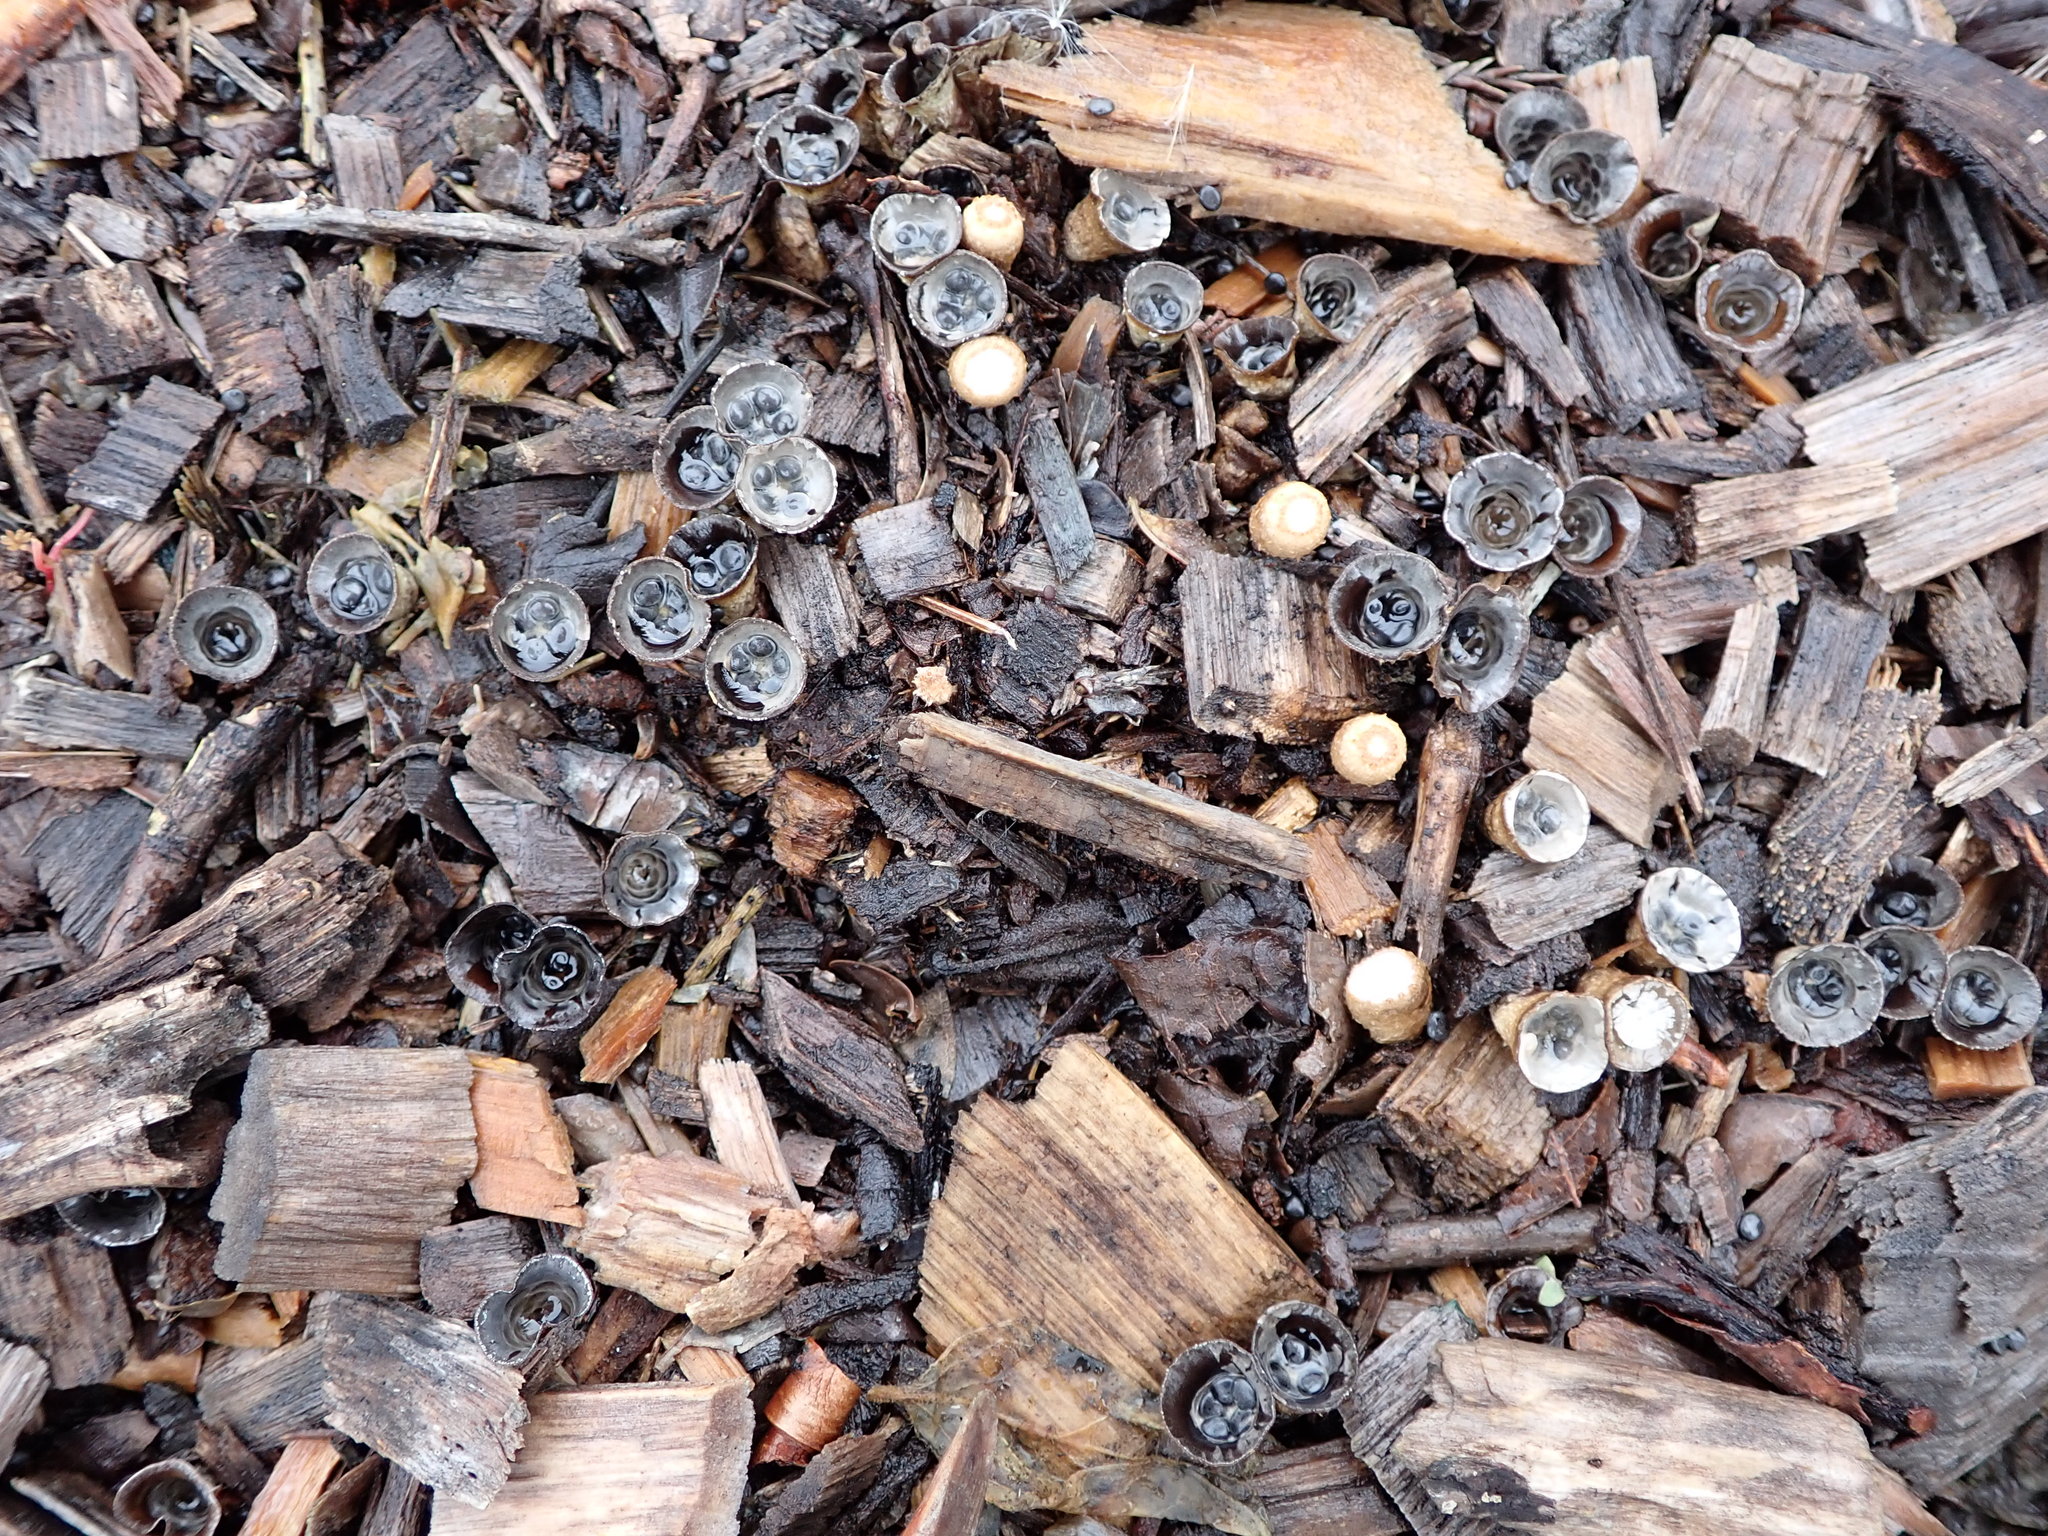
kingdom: Fungi
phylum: Basidiomycota
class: Agaricomycetes
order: Agaricales
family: Agaricaceae
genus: Cyathus
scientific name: Cyathus olla
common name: Field bird's nest
